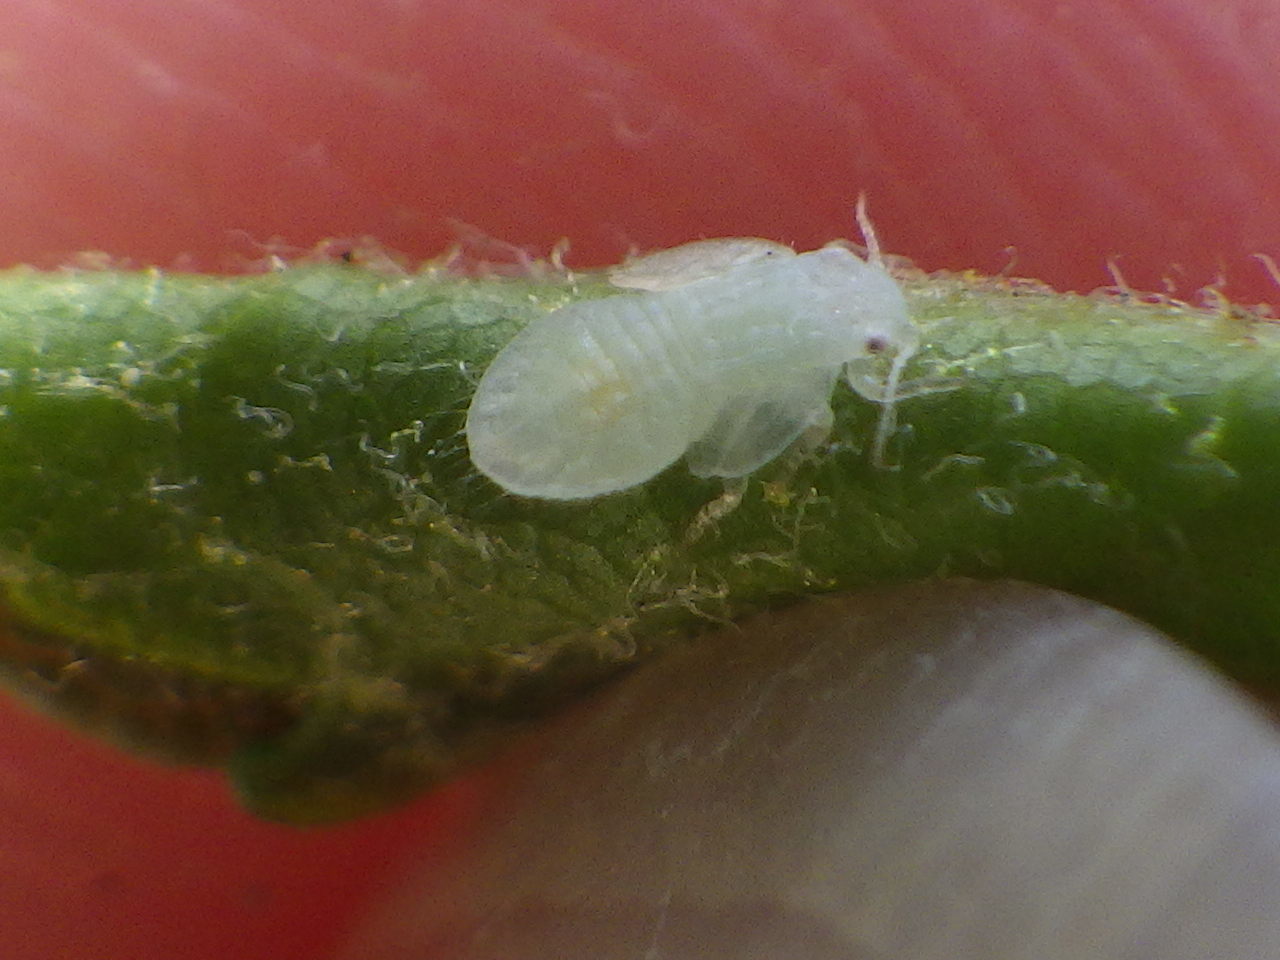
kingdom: Animalia
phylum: Arthropoda
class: Insecta
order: Hemiptera
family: Psyllidae
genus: Cacopsylla
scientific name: Cacopsylla annulata
